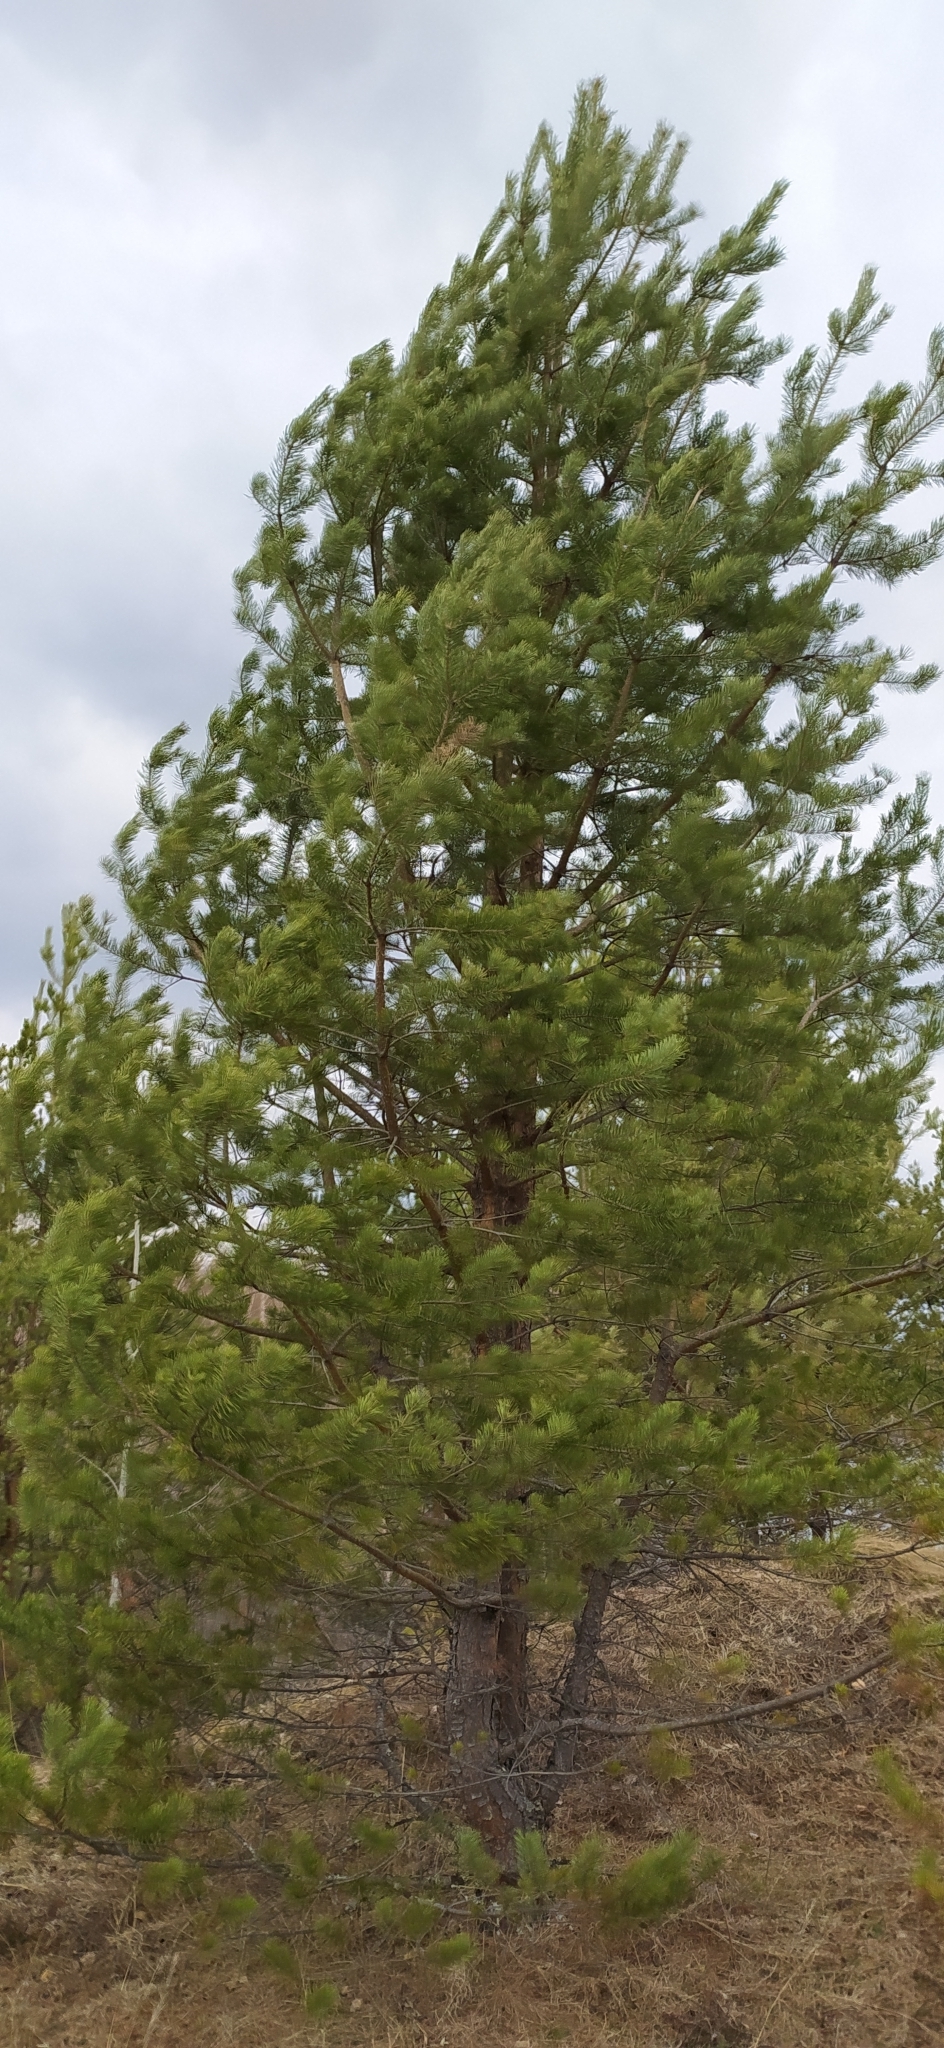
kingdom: Plantae
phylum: Tracheophyta
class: Pinopsida
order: Pinales
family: Pinaceae
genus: Pinus
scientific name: Pinus sylvestris
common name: Scots pine
